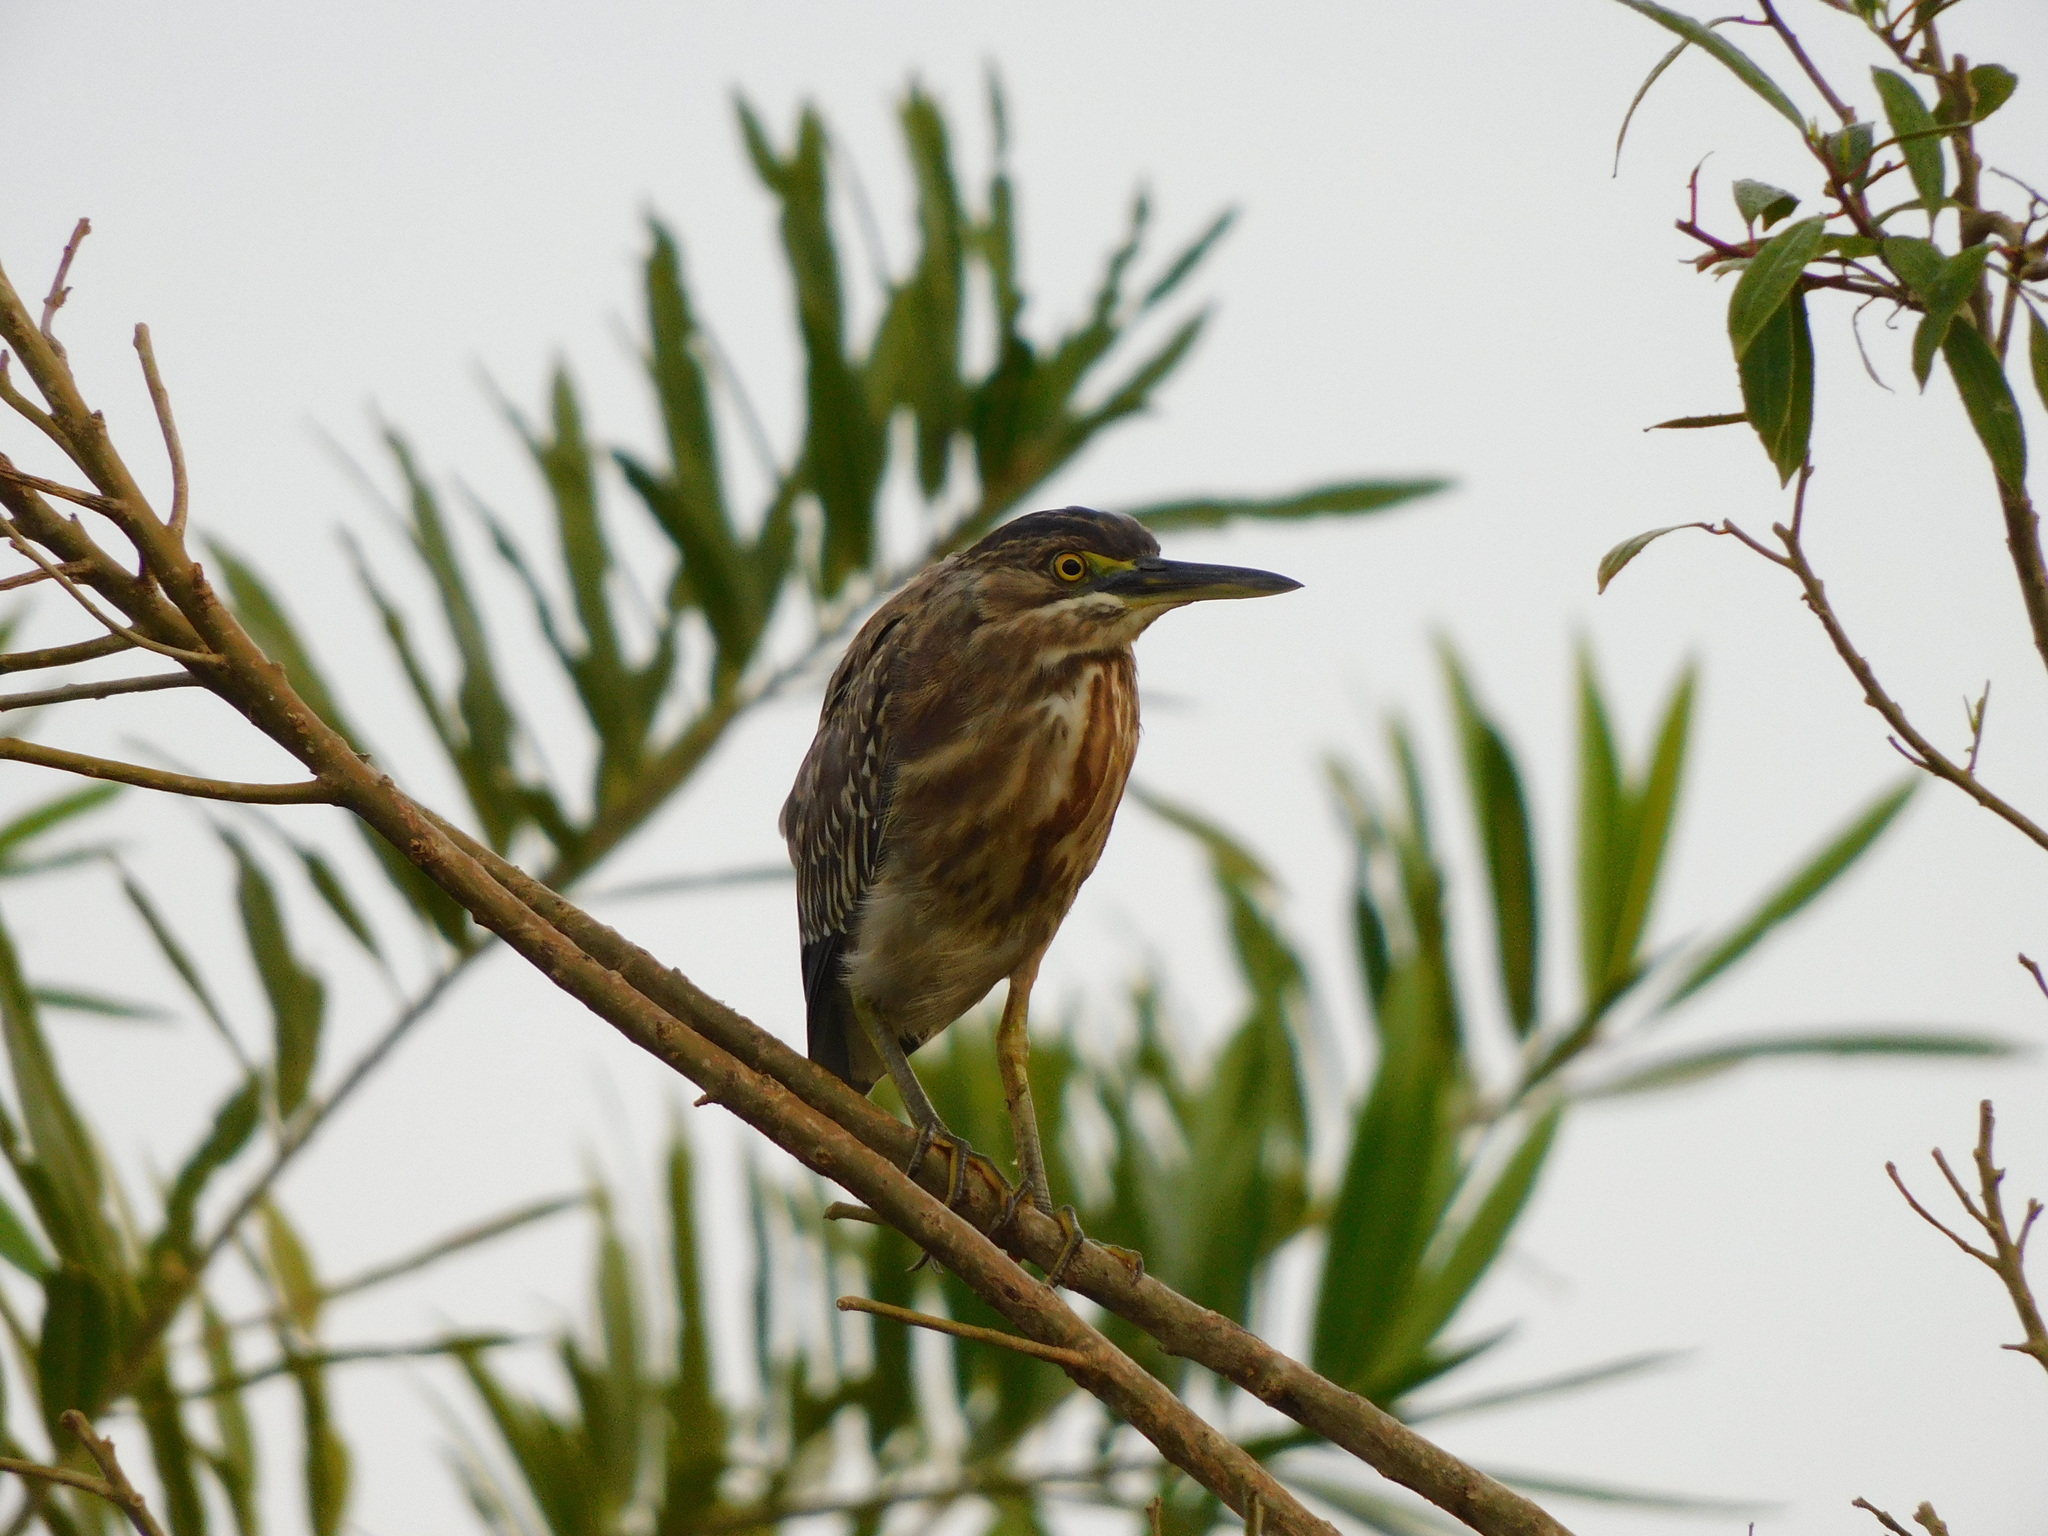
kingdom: Animalia
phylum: Chordata
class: Aves
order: Pelecaniformes
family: Ardeidae
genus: Butorides
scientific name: Butorides striata
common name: Striated heron
